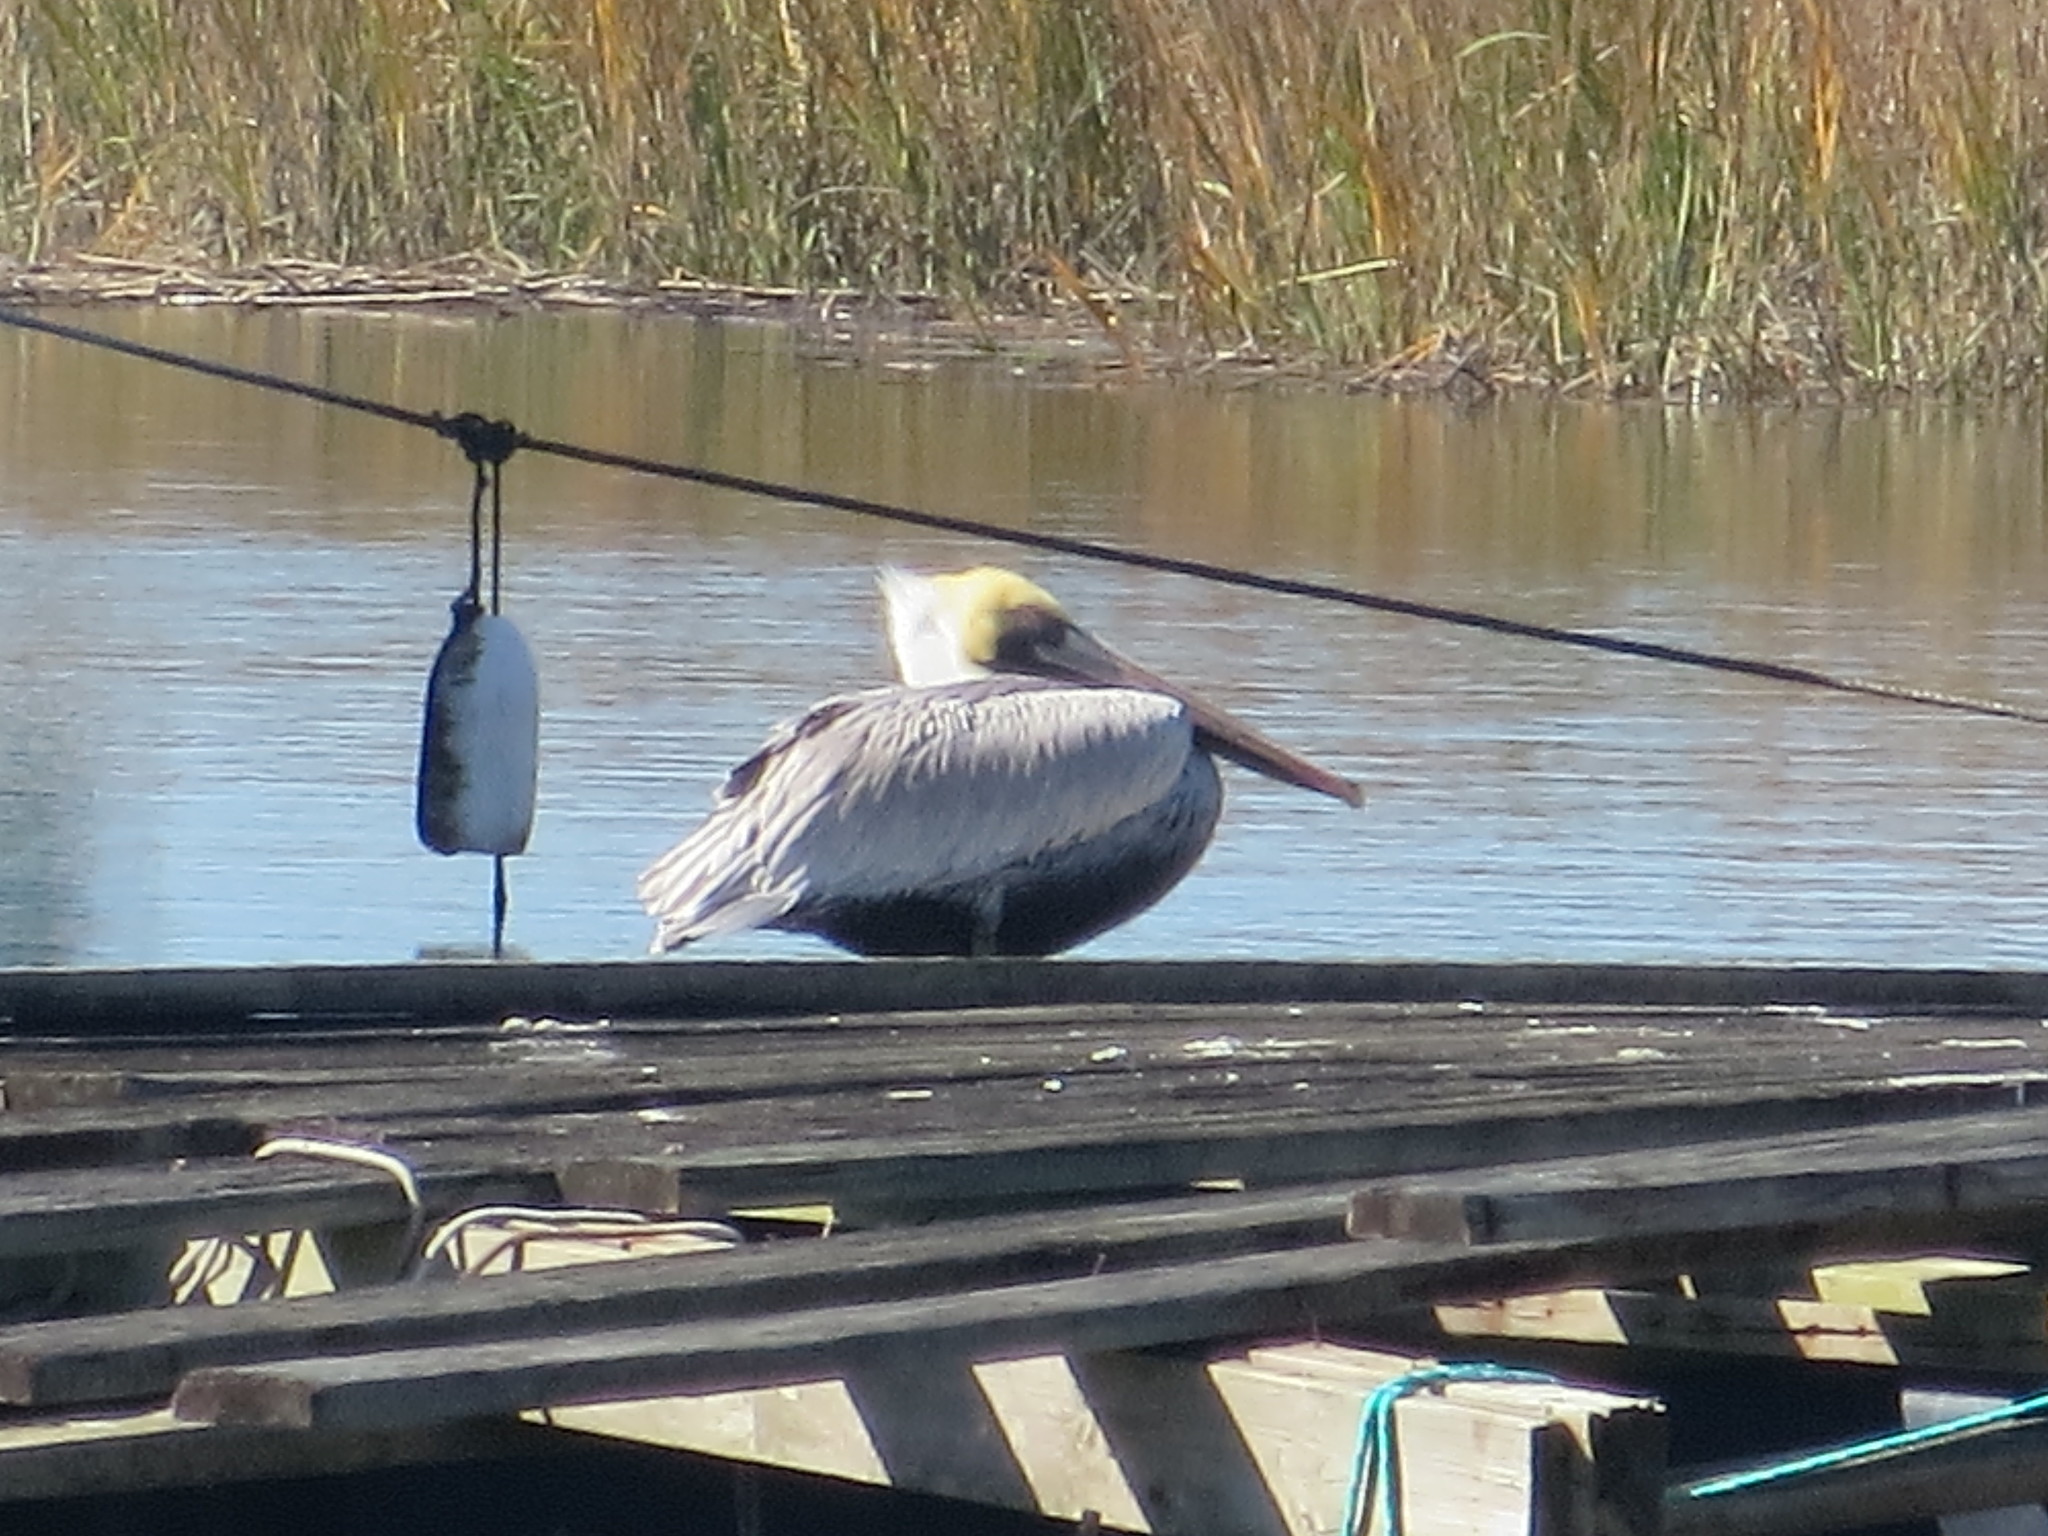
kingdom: Animalia
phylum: Chordata
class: Aves
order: Pelecaniformes
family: Pelecanidae
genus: Pelecanus
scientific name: Pelecanus occidentalis
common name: Brown pelican
